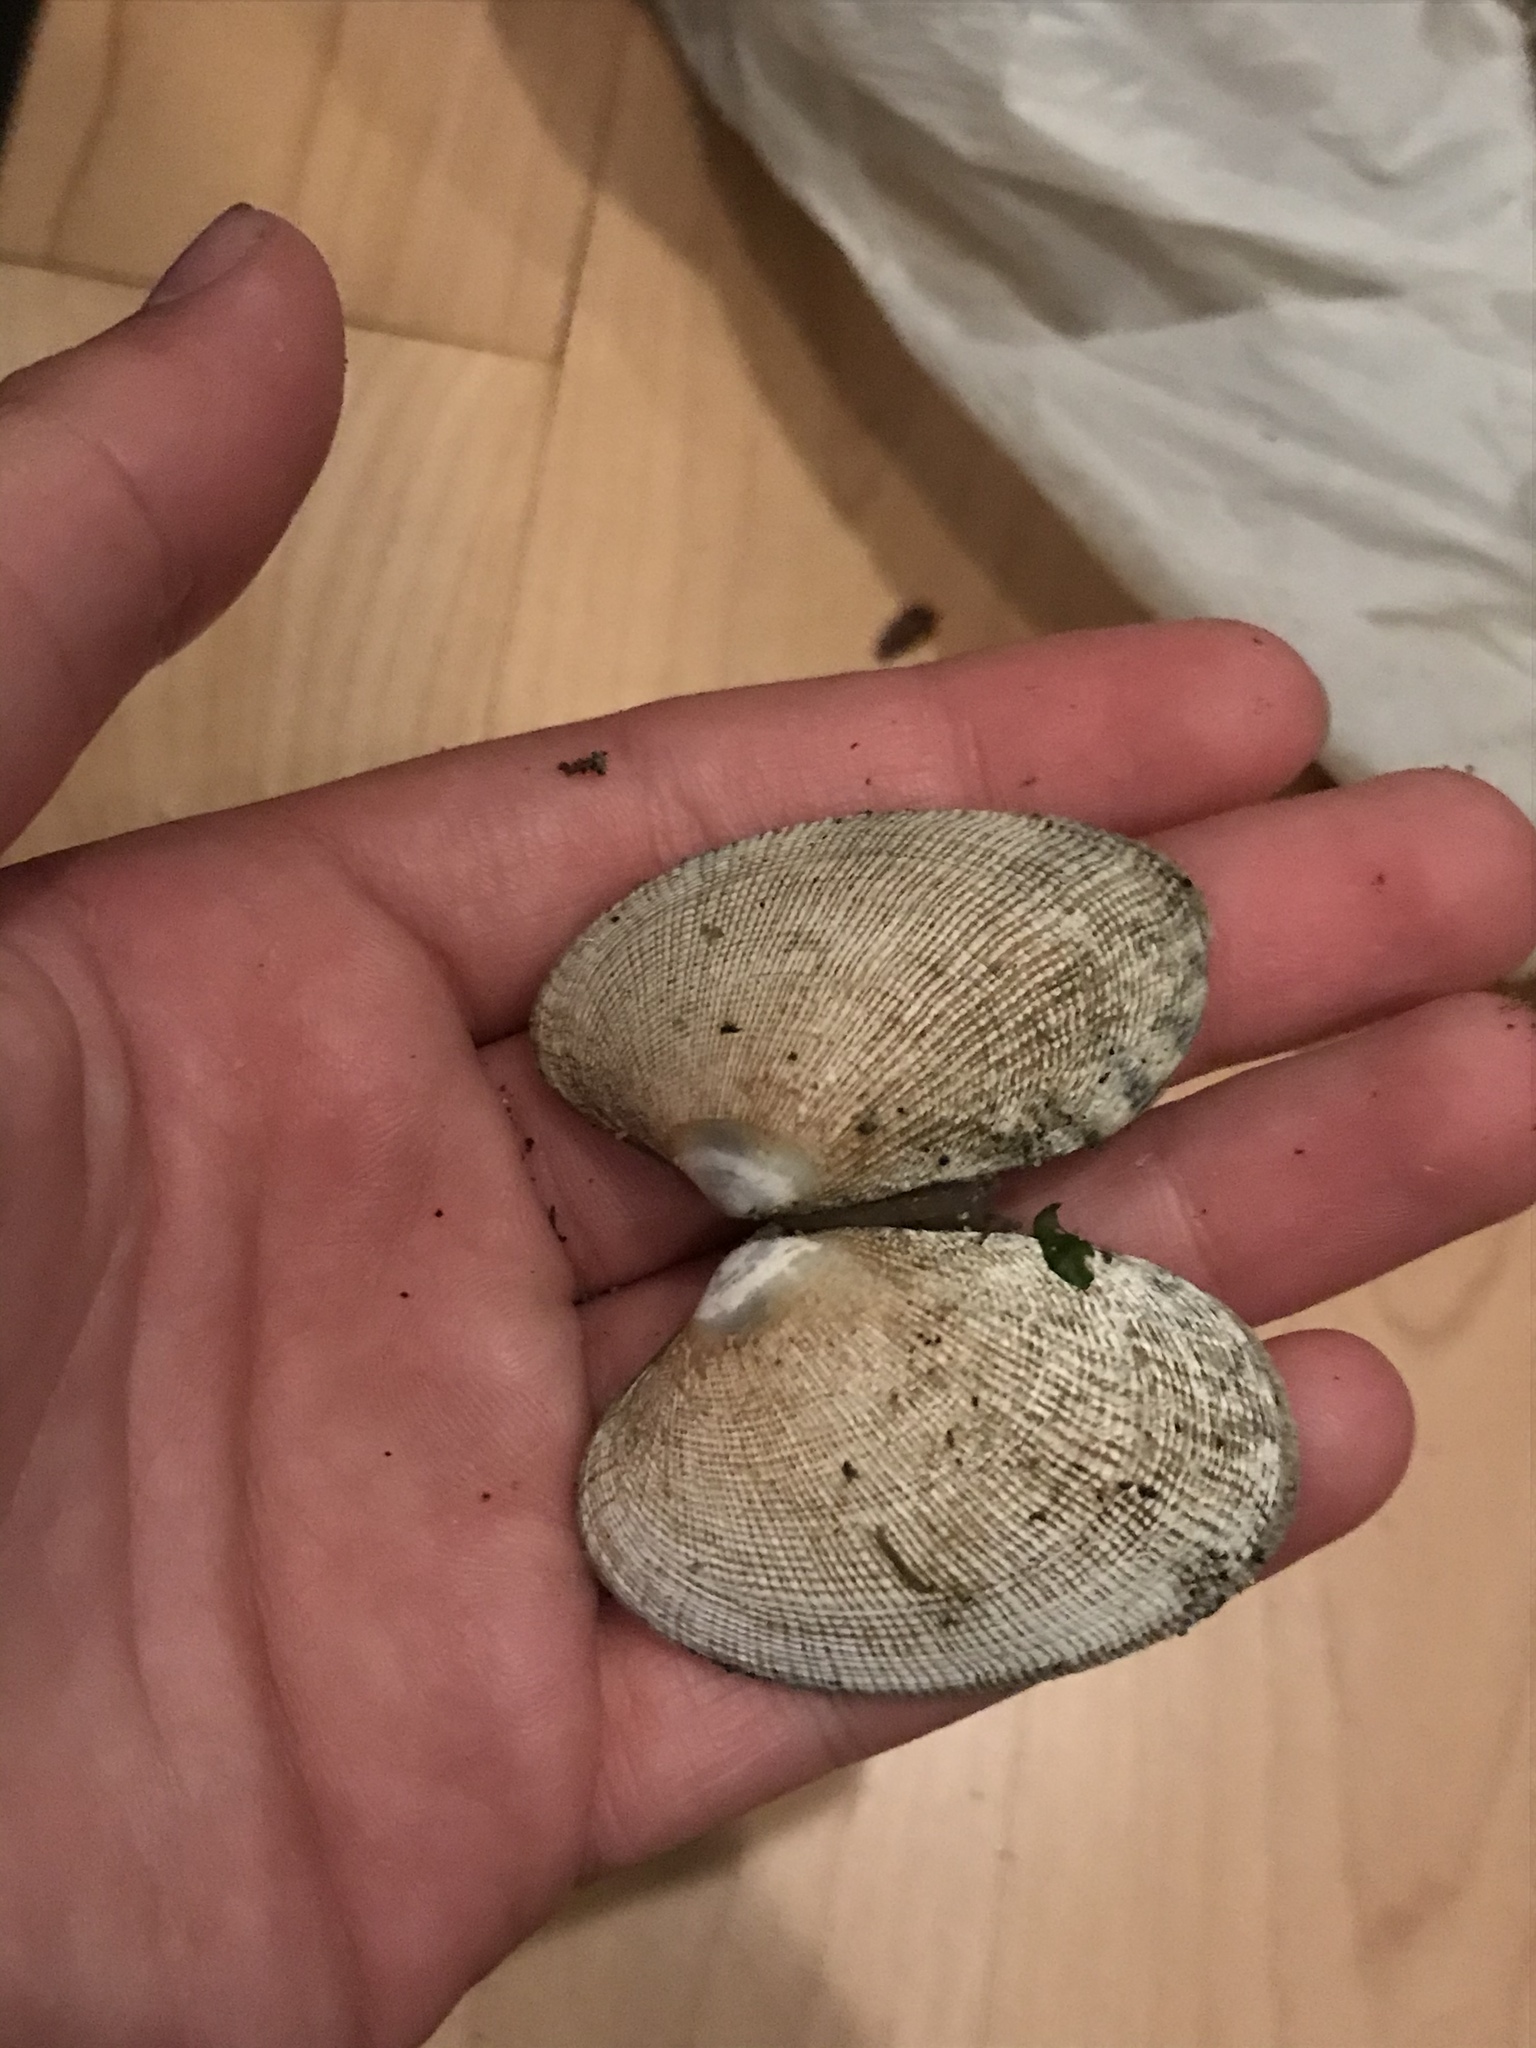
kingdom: Animalia
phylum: Mollusca
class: Bivalvia
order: Venerida
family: Veneridae
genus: Ruditapes
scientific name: Ruditapes philippinarum
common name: Manila clam
